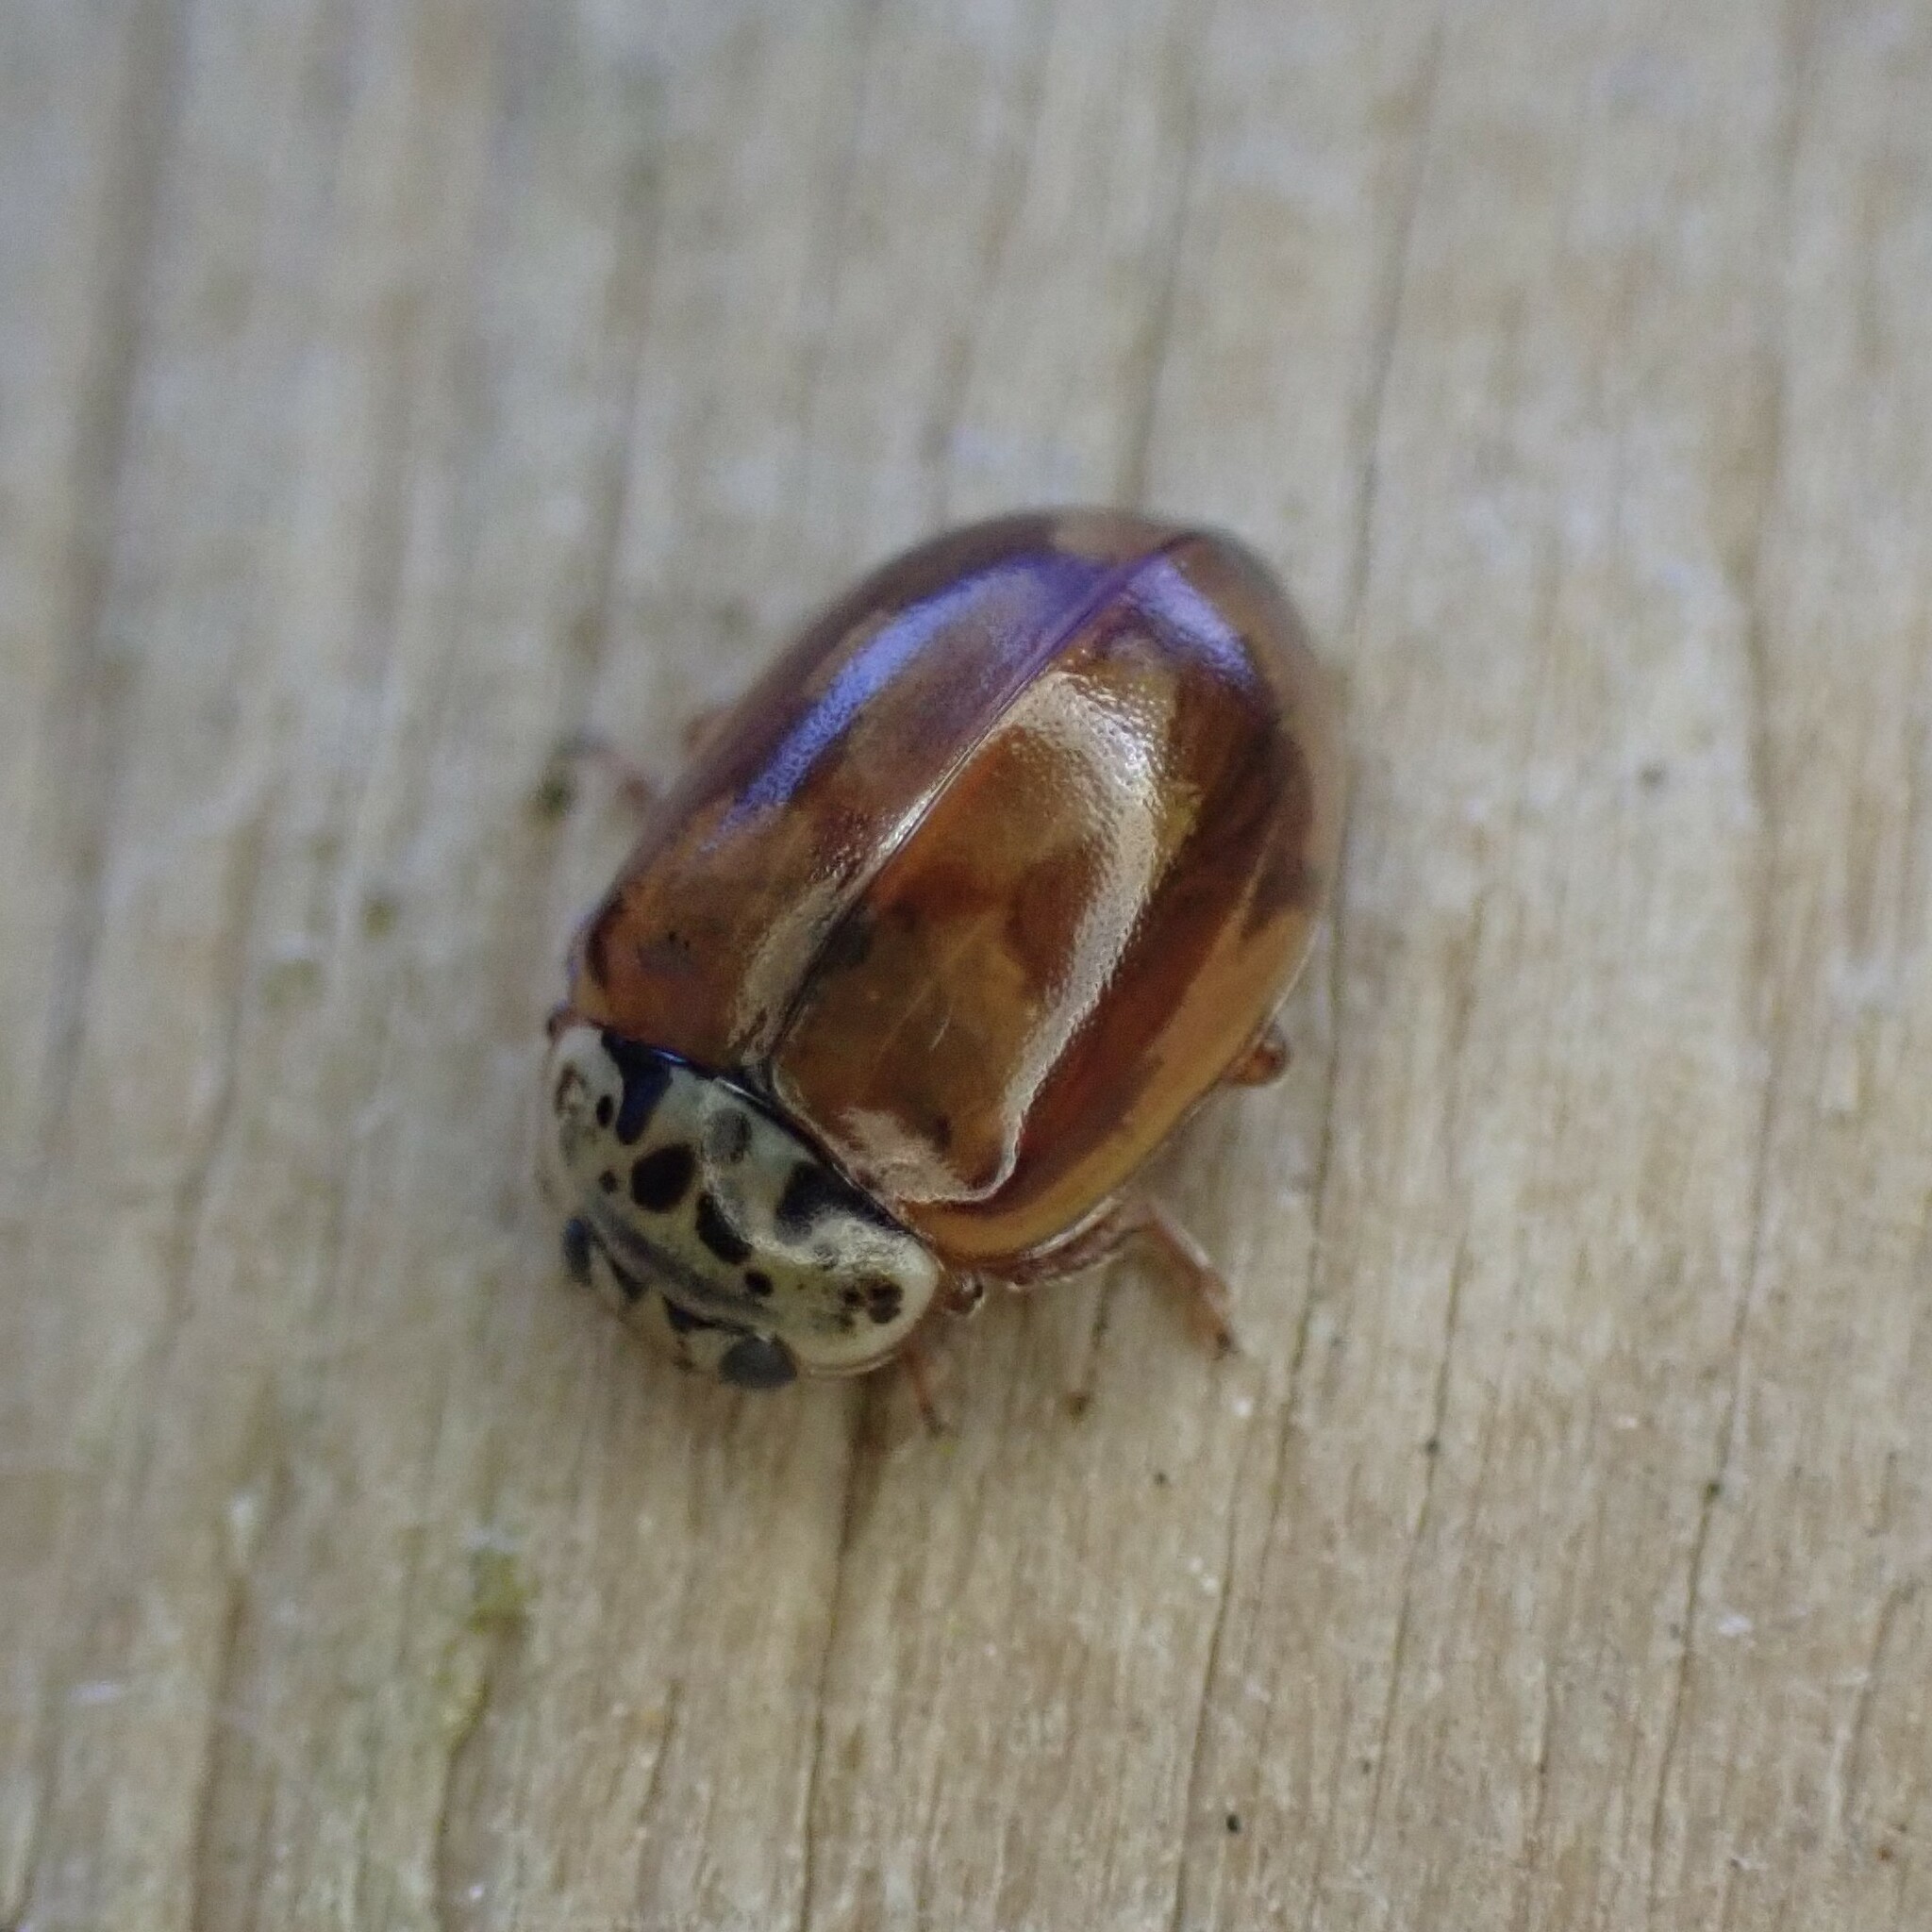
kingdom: Animalia
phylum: Arthropoda
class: Insecta
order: Coleoptera
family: Coccinellidae
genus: Mulsantina
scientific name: Mulsantina picta
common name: Painted ladybird
